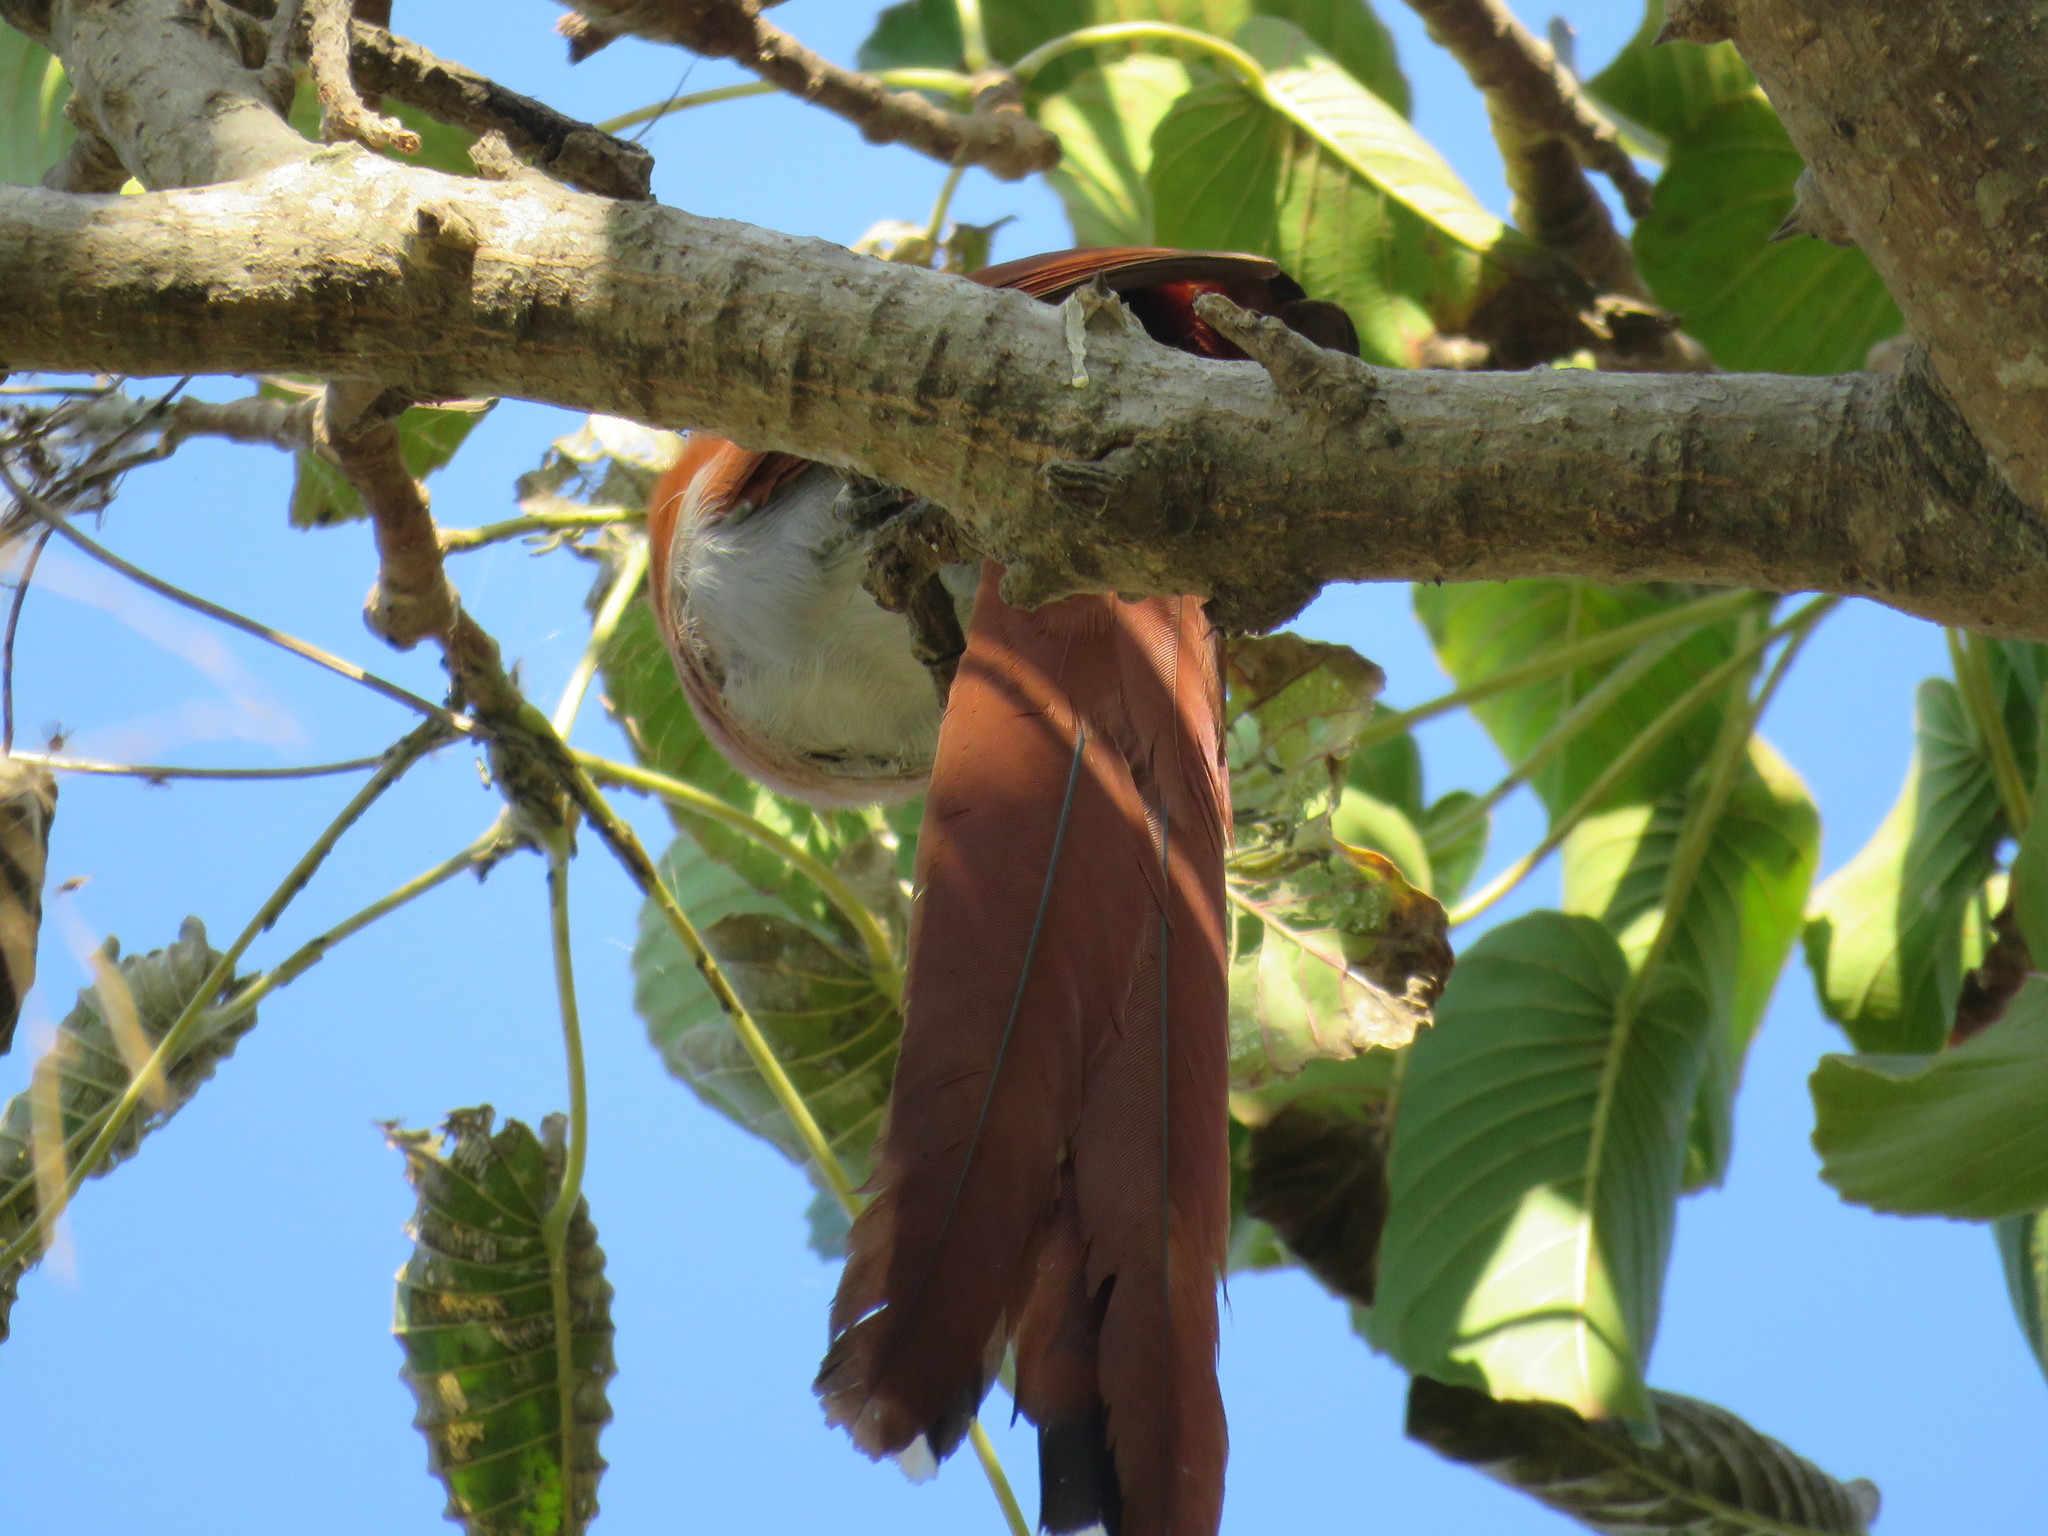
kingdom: Animalia
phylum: Chordata
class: Aves
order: Cuculiformes
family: Cuculidae
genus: Piaya
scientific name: Piaya cayana
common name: Squirrel cuckoo
